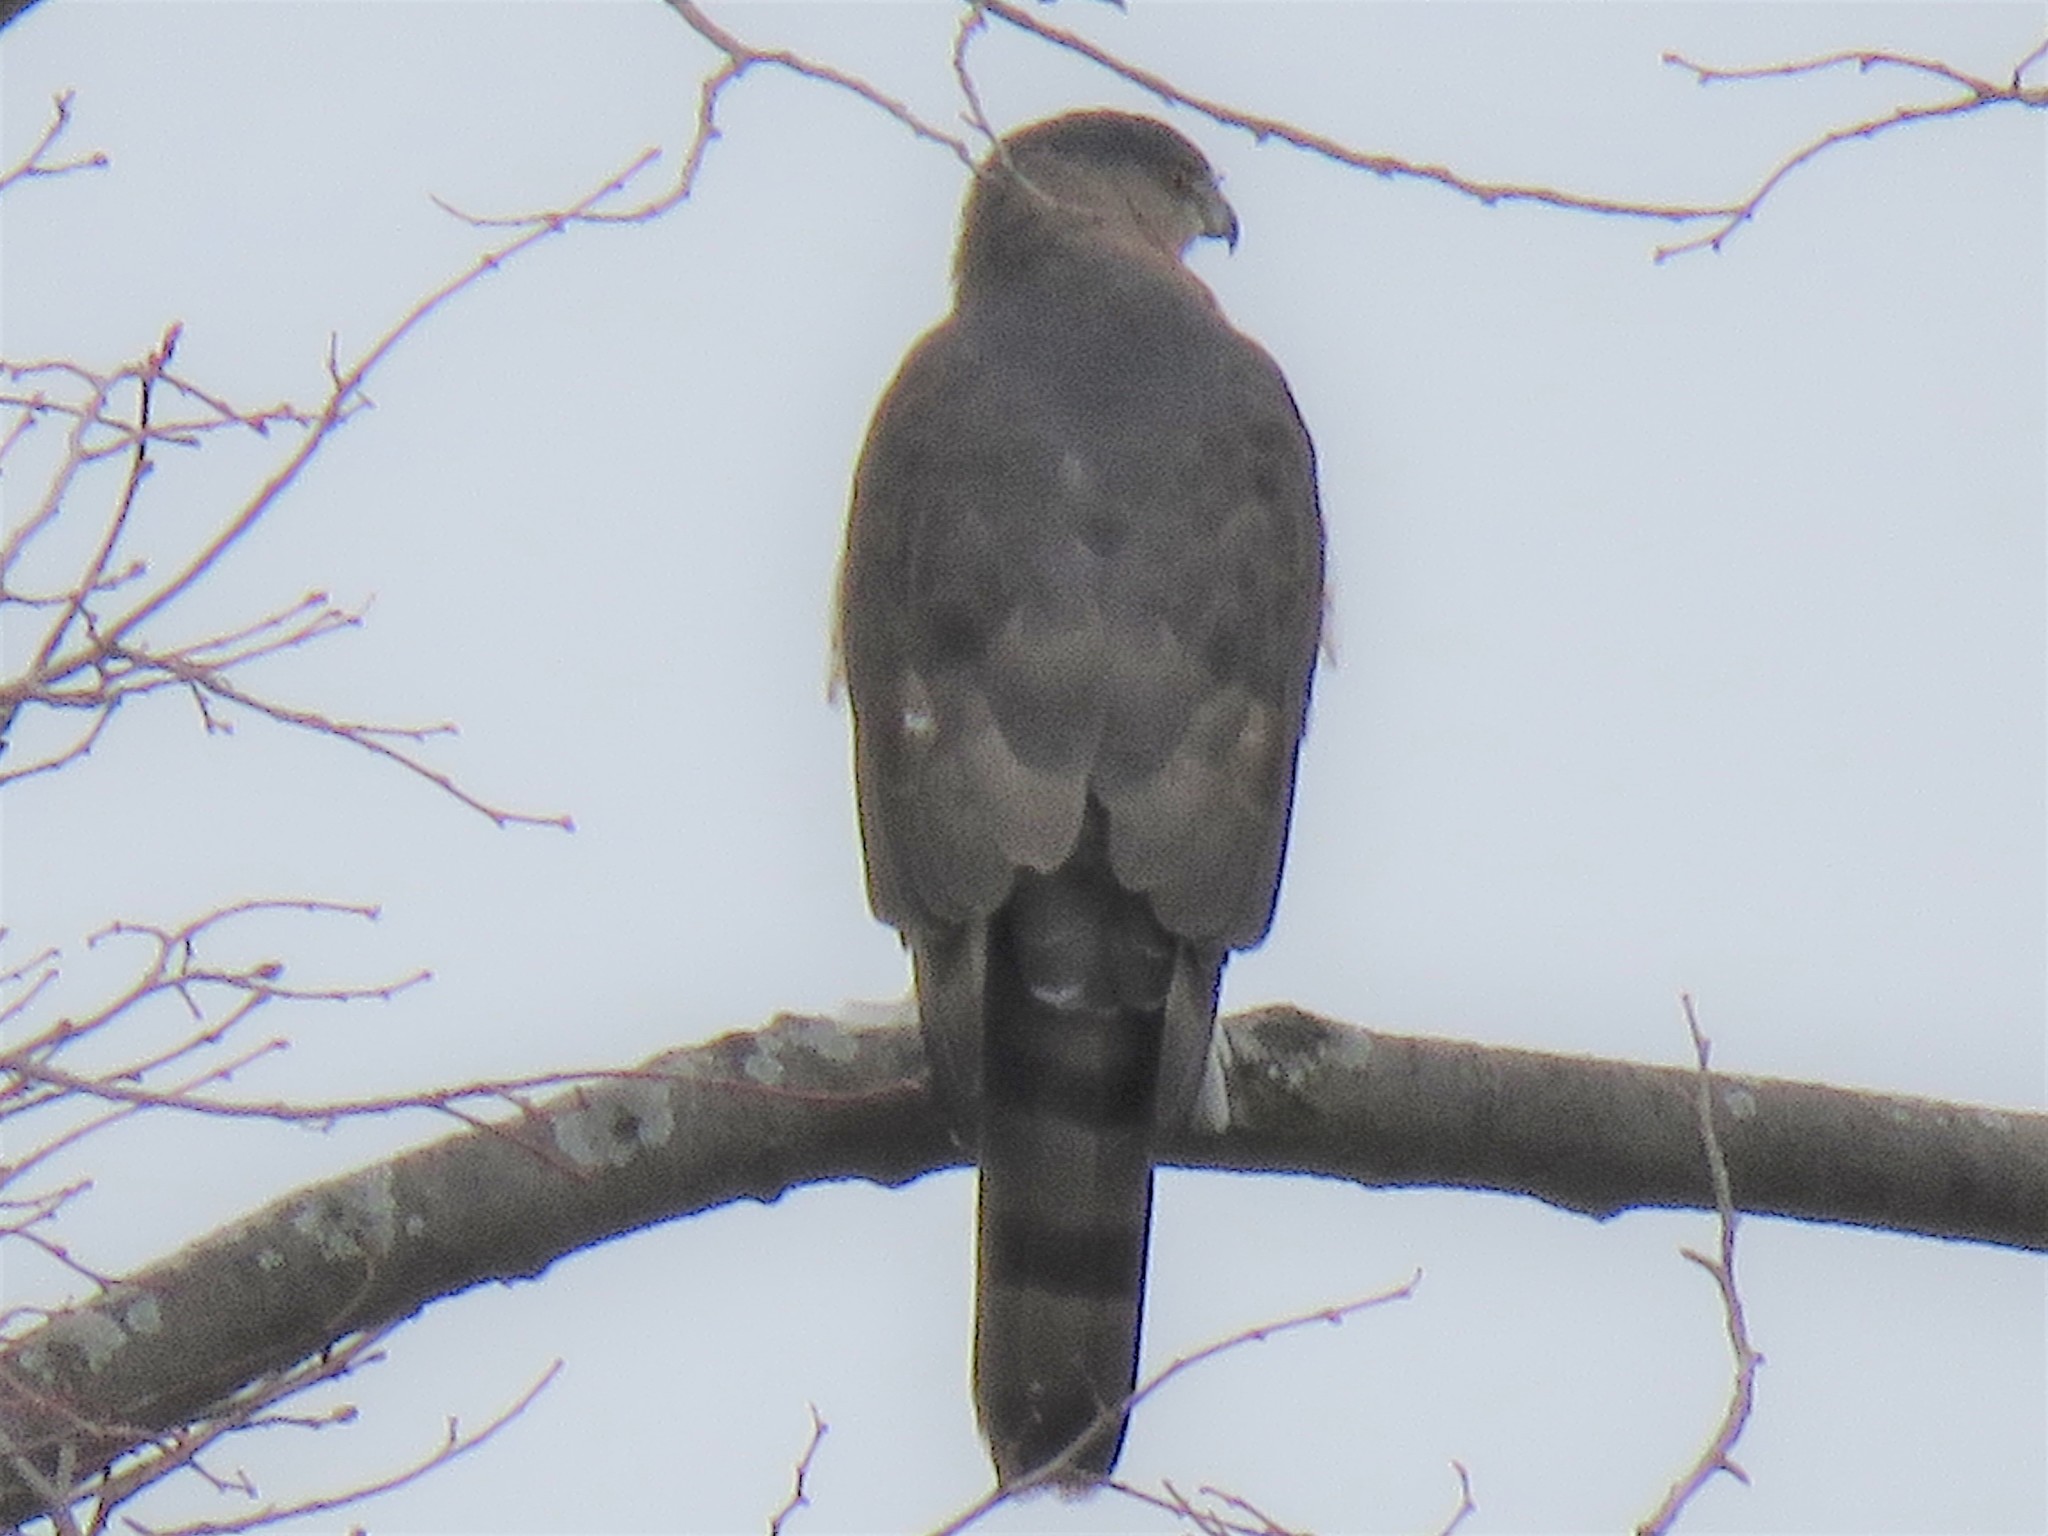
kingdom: Animalia
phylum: Chordata
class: Aves
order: Accipitriformes
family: Accipitridae
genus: Accipiter
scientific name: Accipiter cooperii
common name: Cooper's hawk
